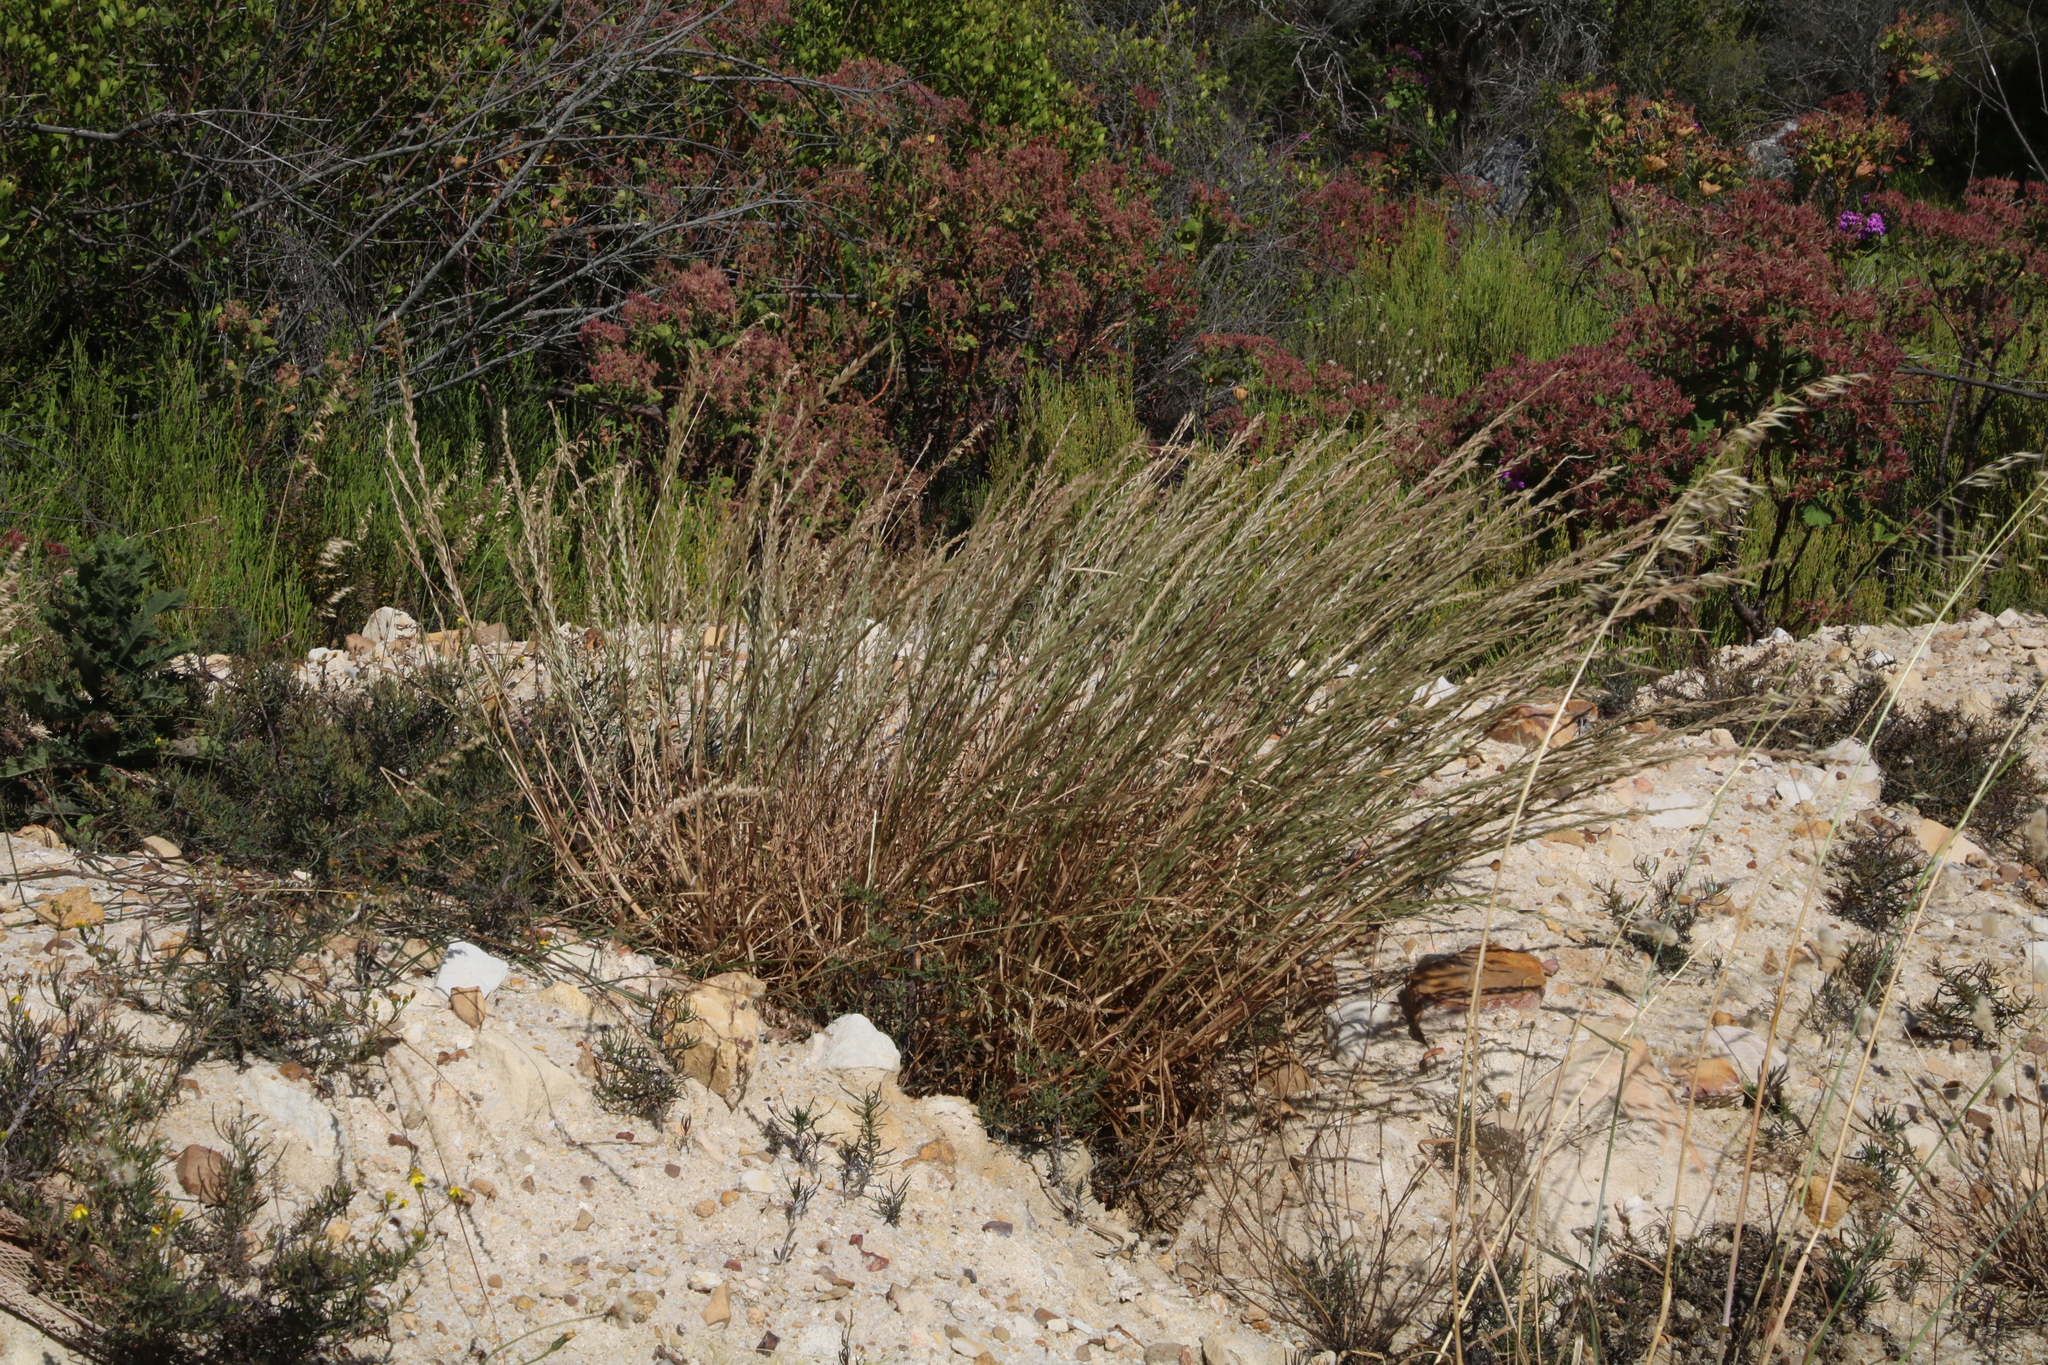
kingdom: Plantae
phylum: Tracheophyta
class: Liliopsida
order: Poales
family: Poaceae
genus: Lolium
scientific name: Lolium perenne
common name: Perennial ryegrass
